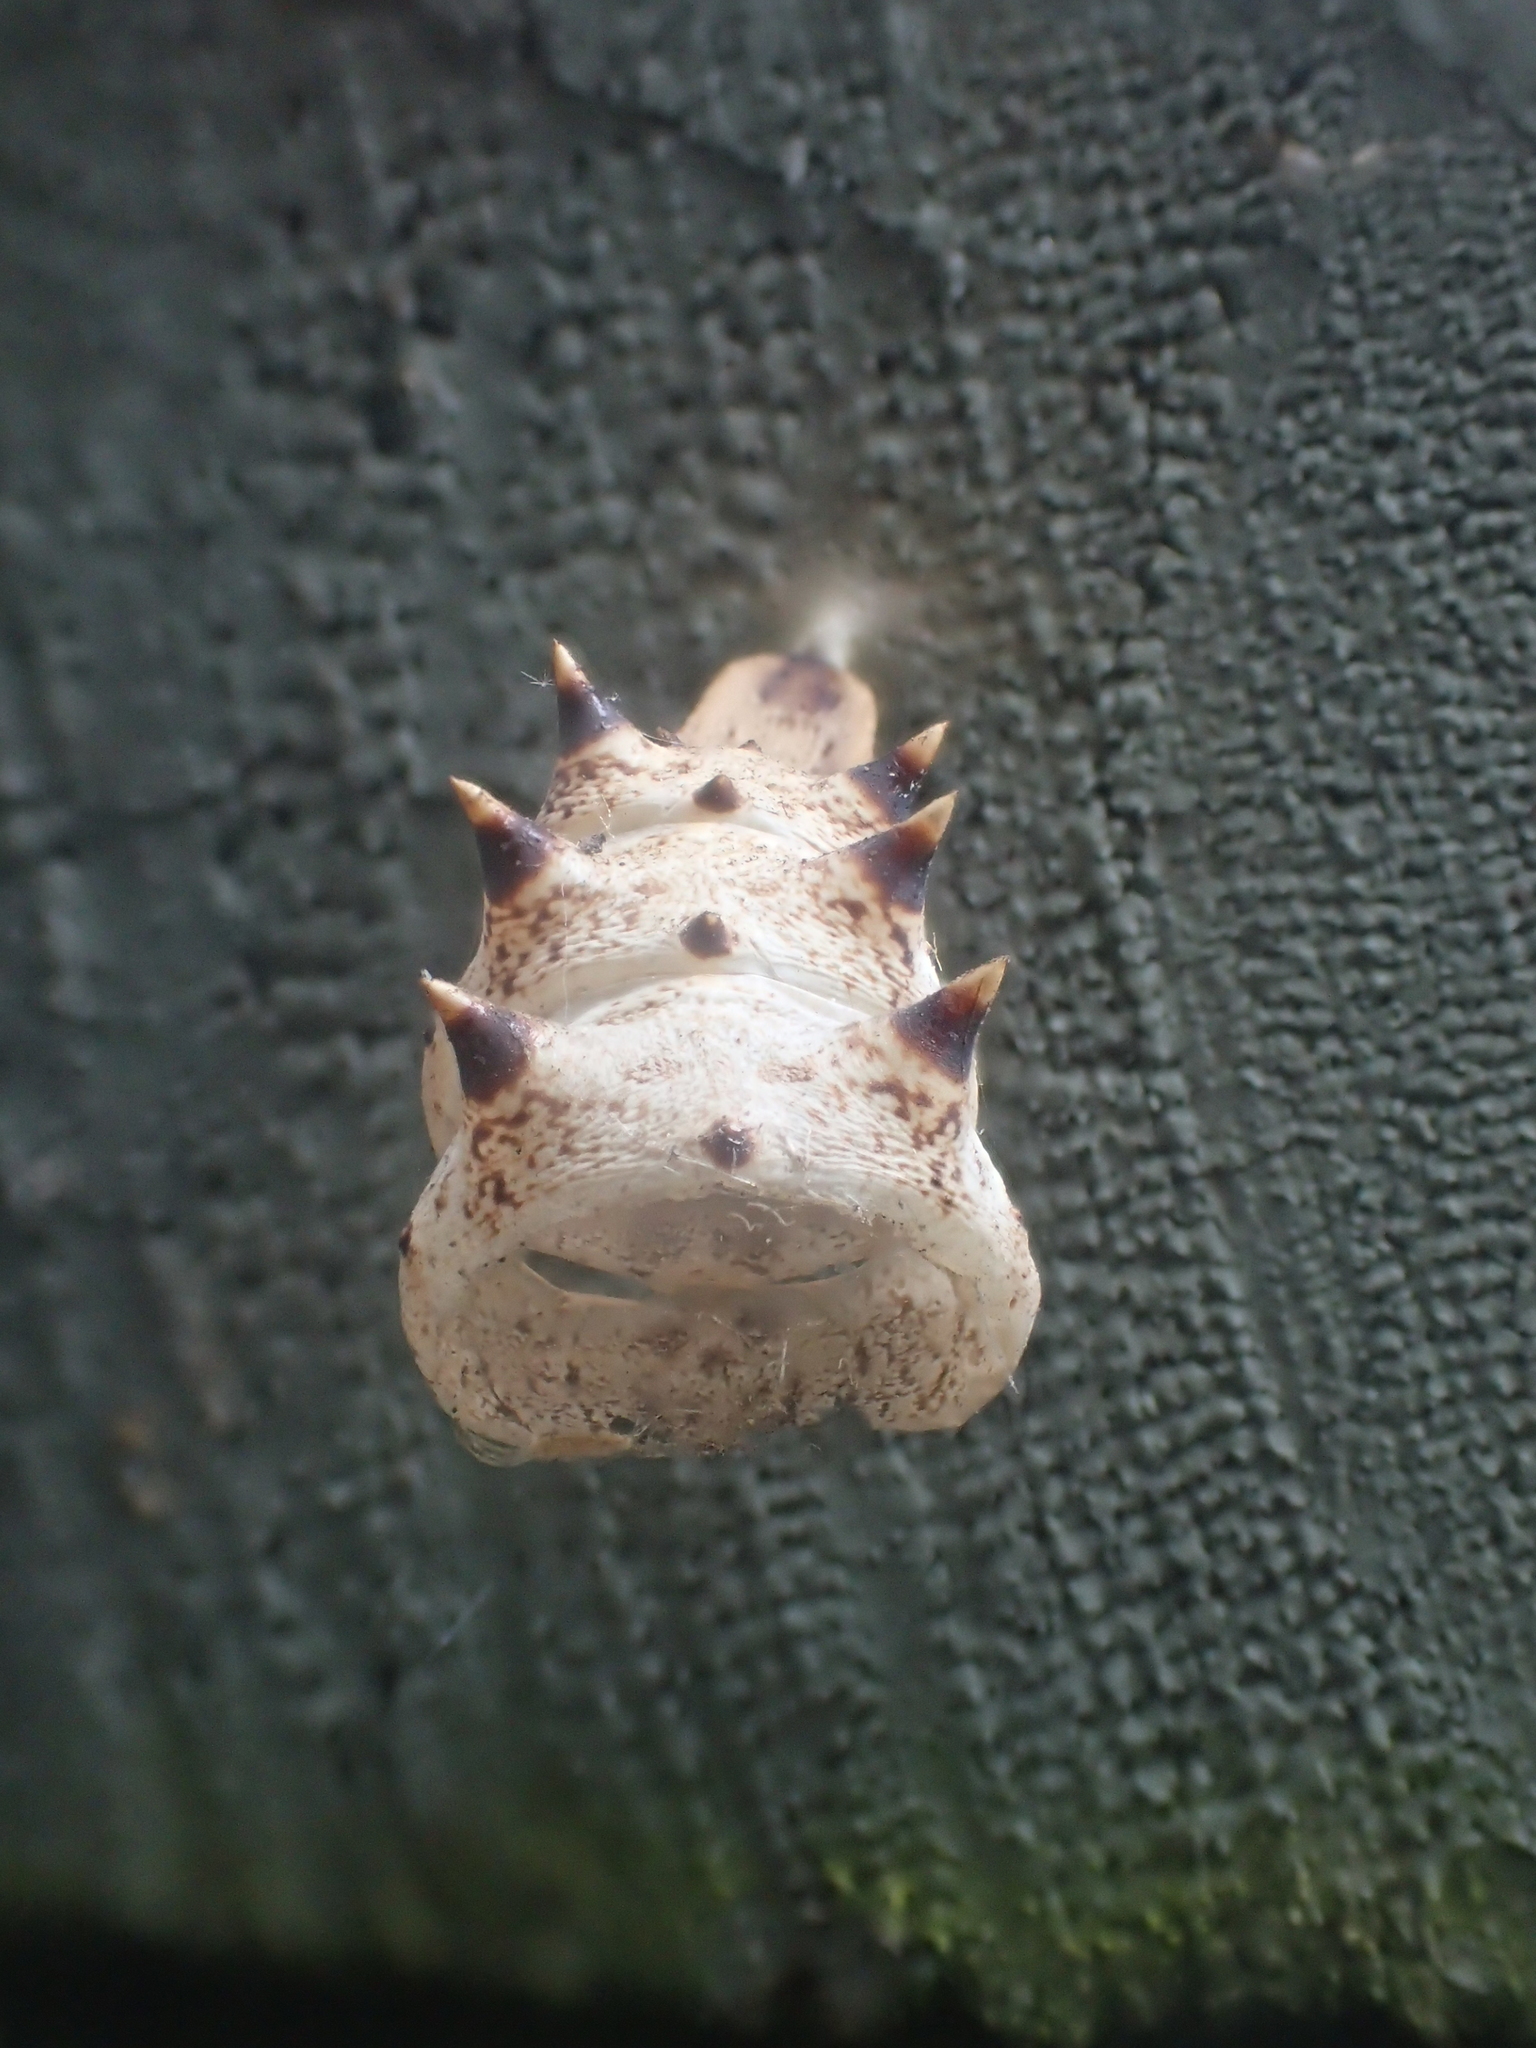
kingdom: Animalia
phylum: Arthropoda
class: Insecta
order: Lepidoptera
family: Nymphalidae
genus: Nymphalis
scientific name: Nymphalis antiopa
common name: Camberwell beauty
